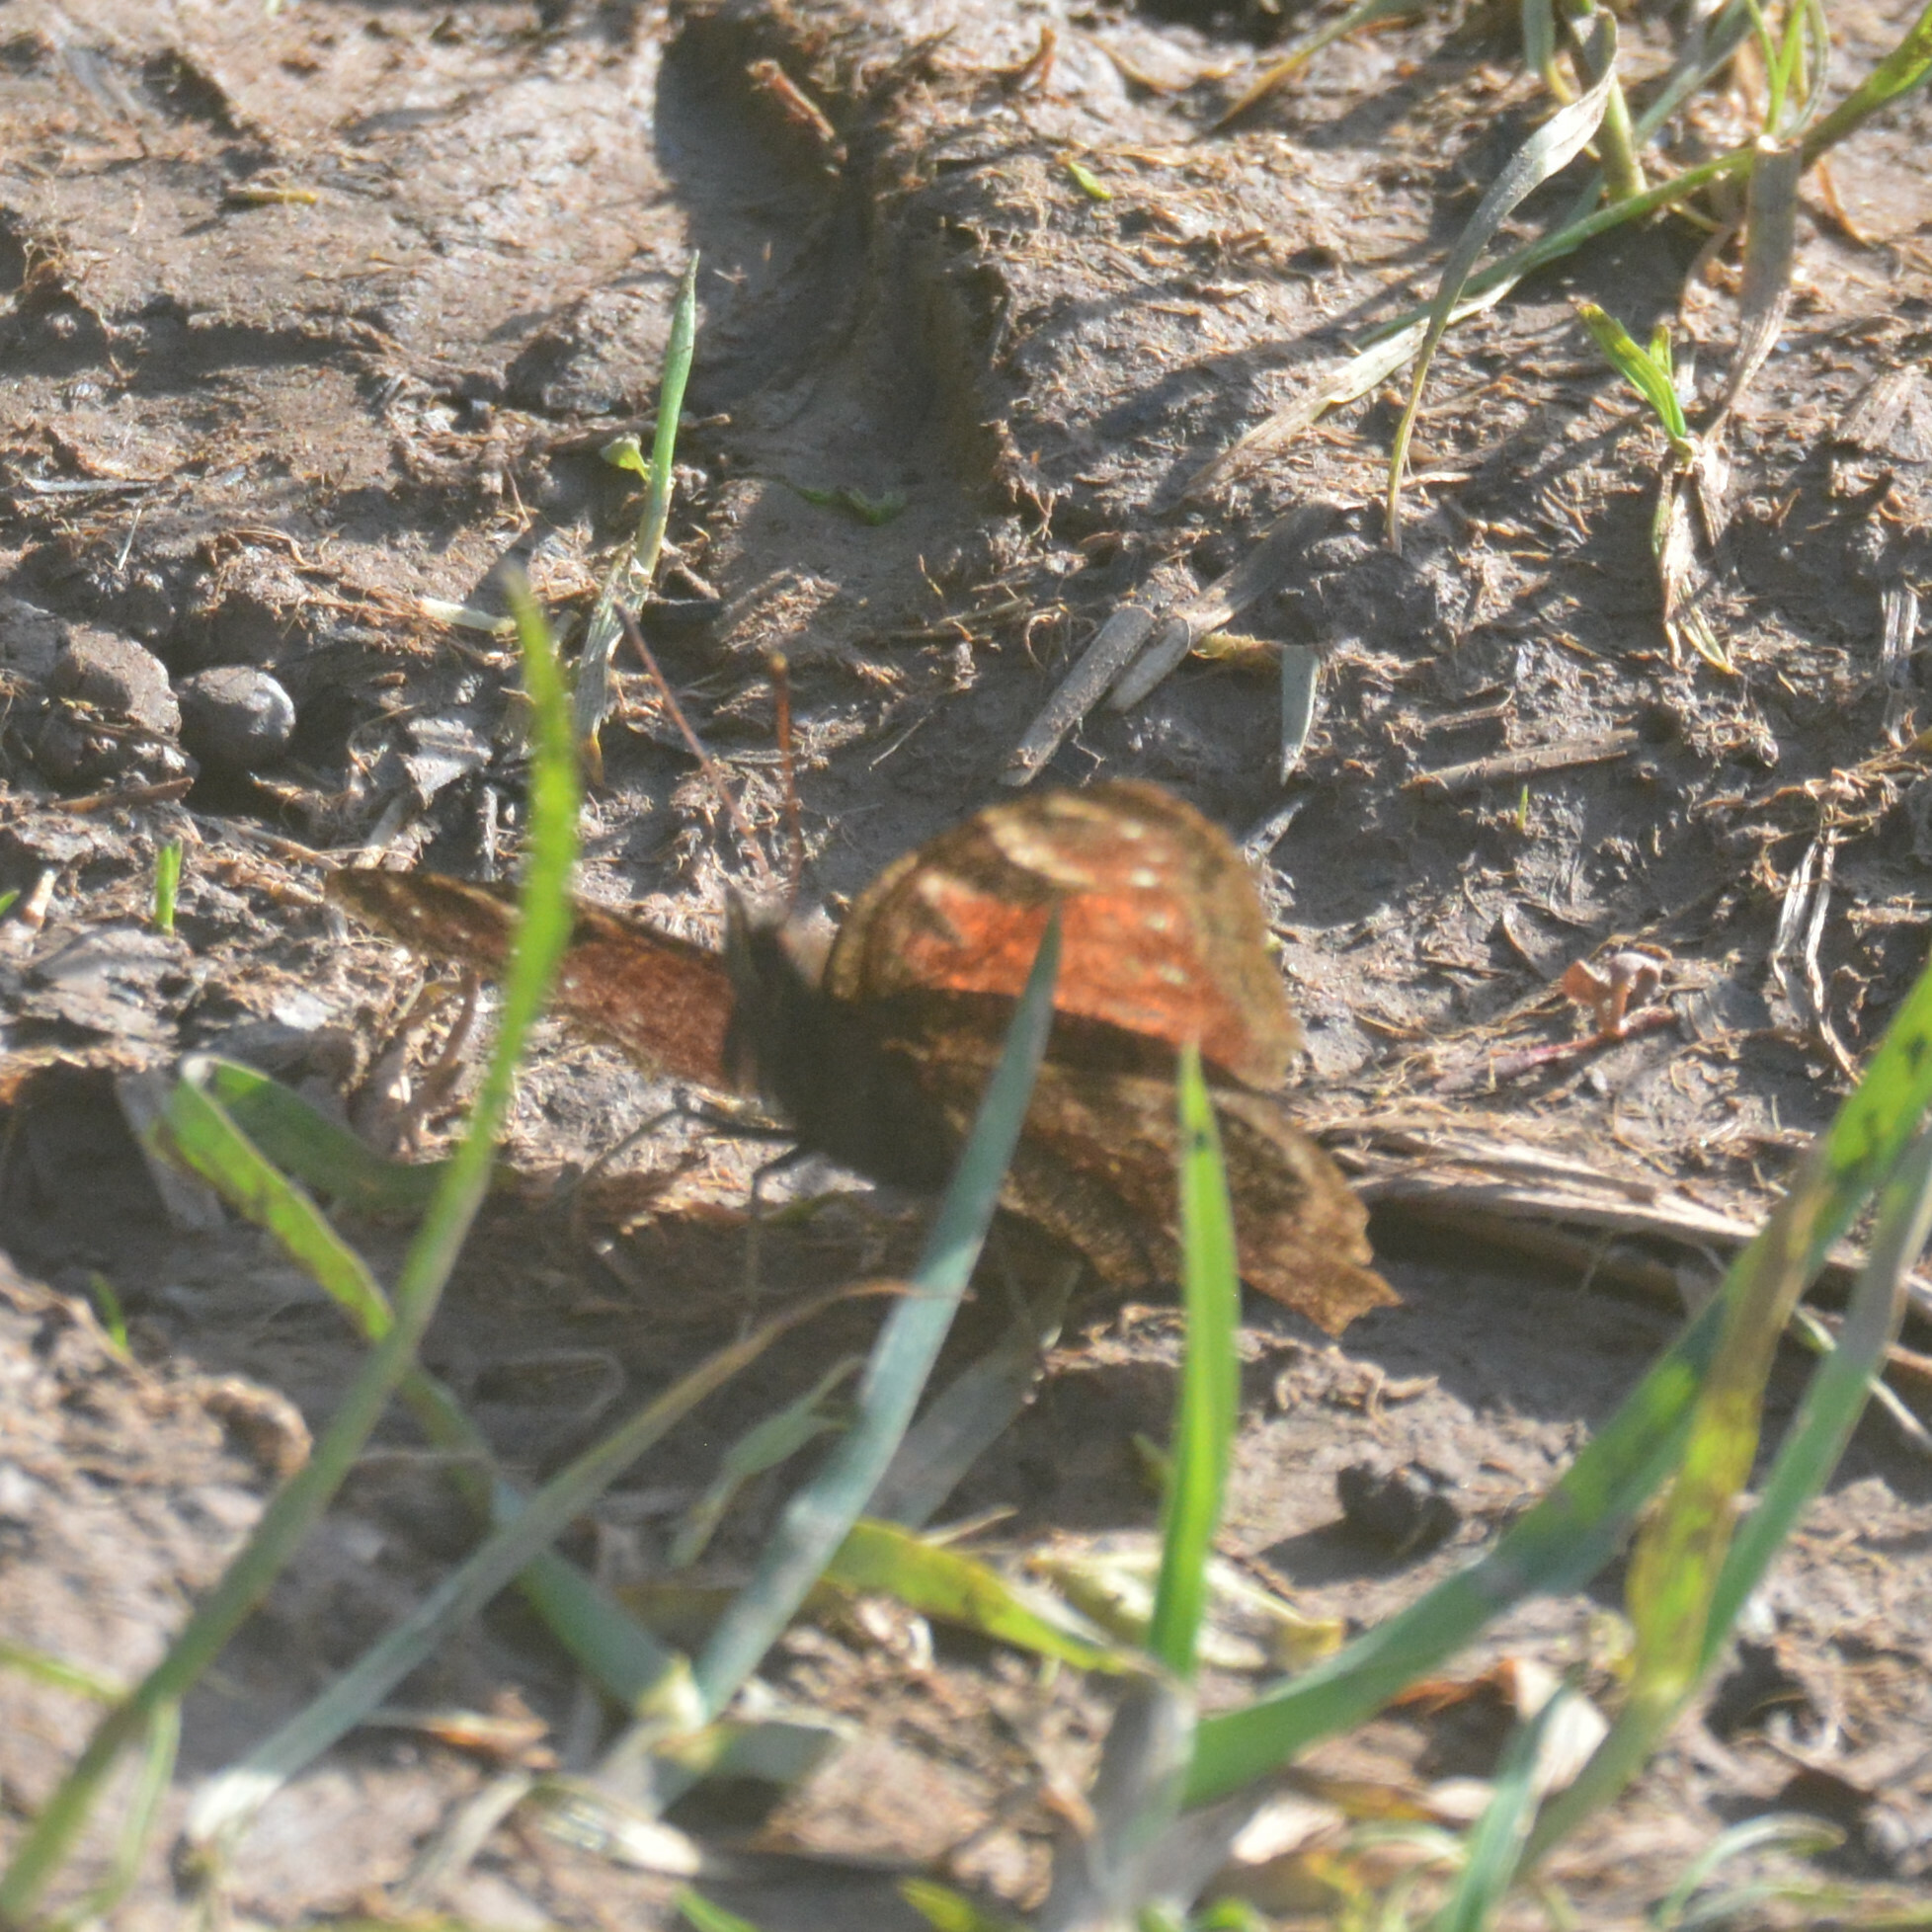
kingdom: Animalia
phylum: Arthropoda
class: Insecta
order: Lepidoptera
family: Nymphalidae
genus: Aglais
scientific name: Aglais io
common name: Peacock
